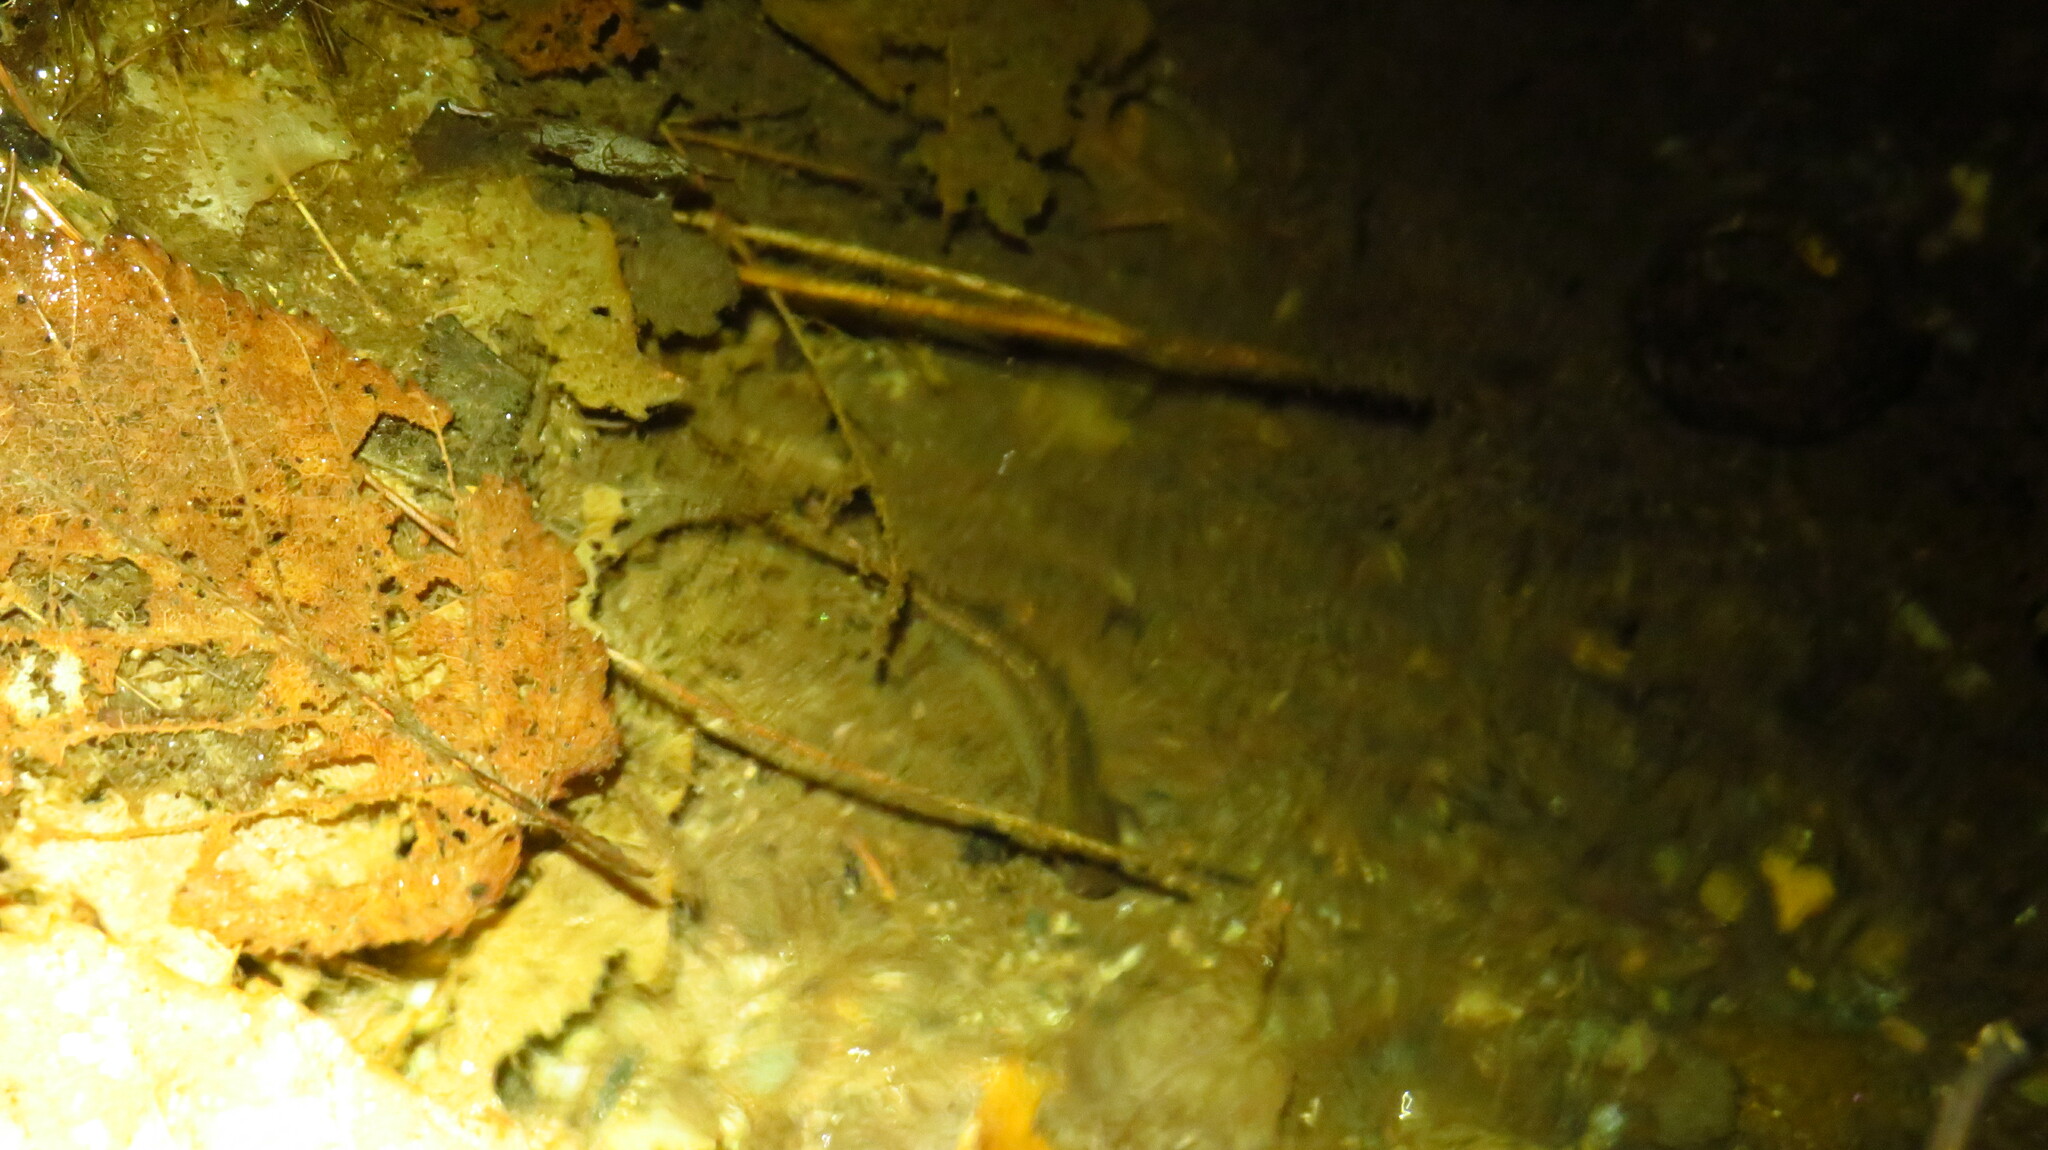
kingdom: Animalia
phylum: Chordata
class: Amphibia
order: Caudata
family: Plethodontidae
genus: Eurycea
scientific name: Eurycea bislineata
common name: Northern two-lined salamander
